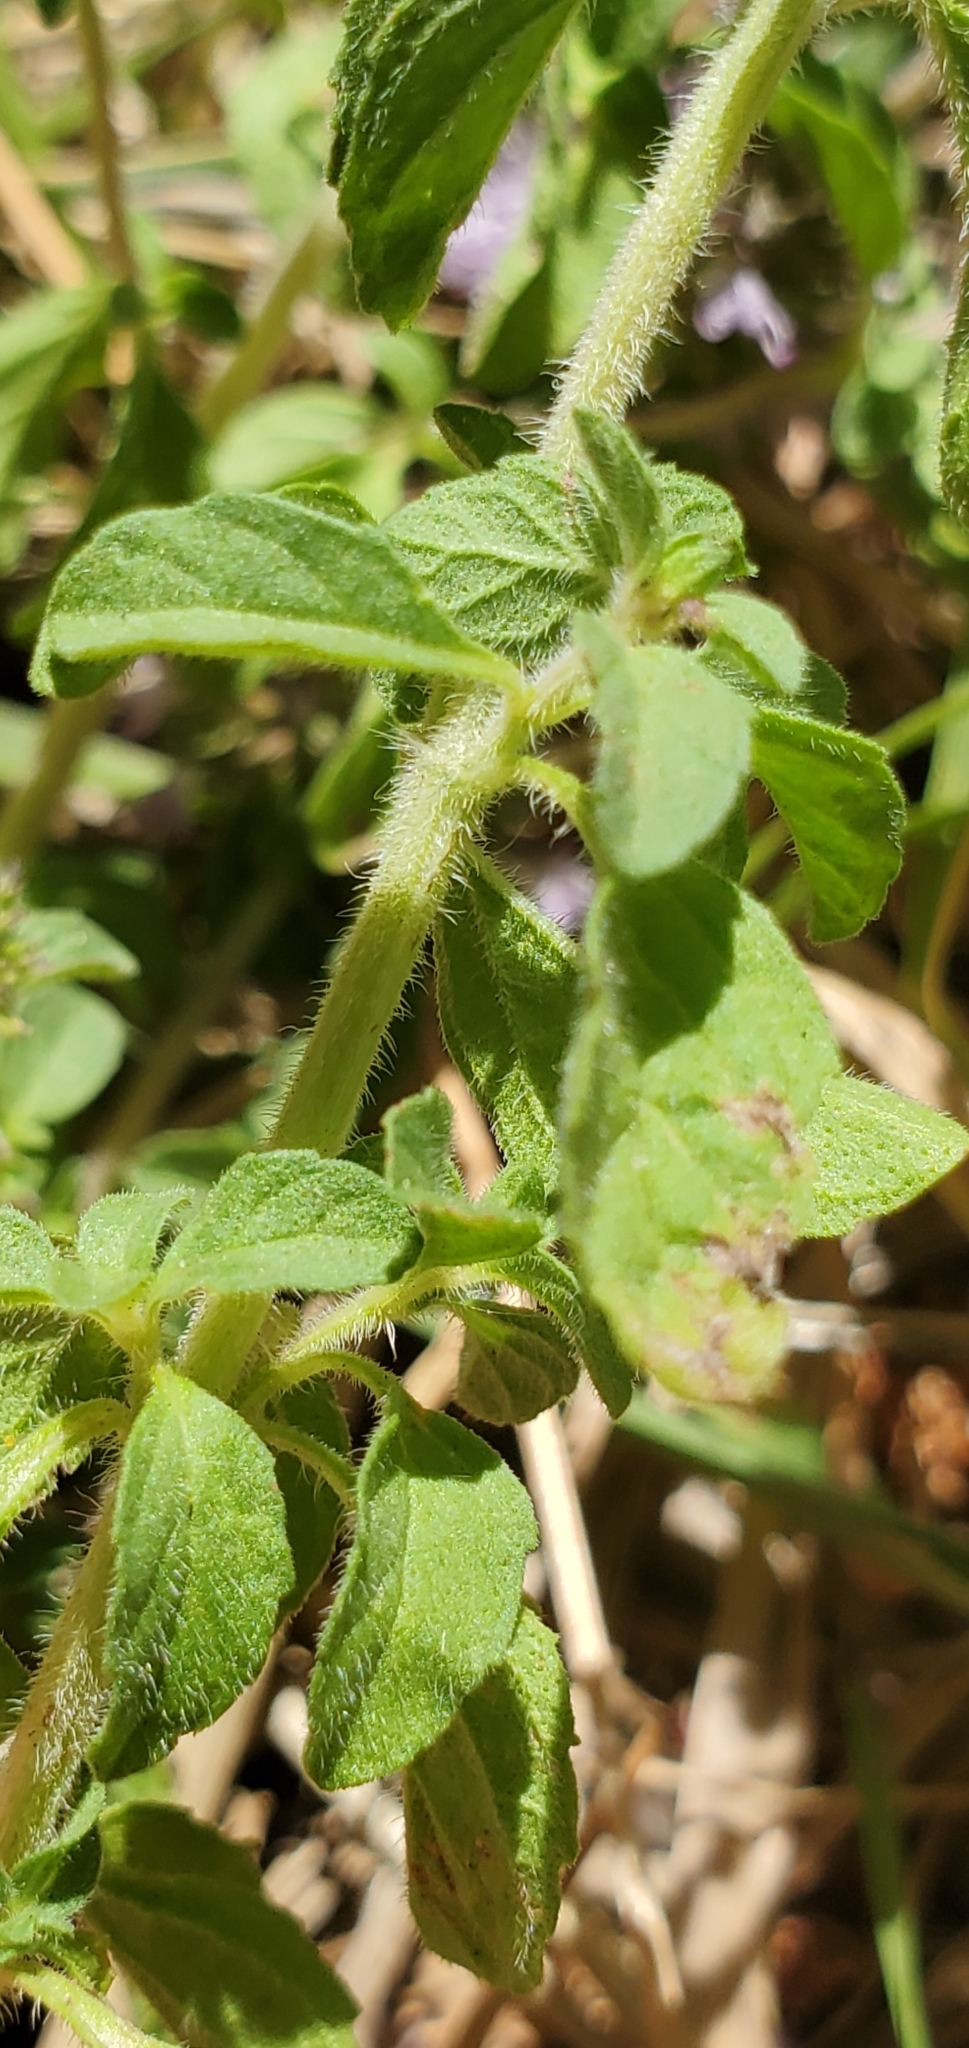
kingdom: Plantae
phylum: Tracheophyta
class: Magnoliopsida
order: Lamiales
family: Lamiaceae
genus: Mentha
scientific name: Mentha pulegium
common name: Pennyroyal
